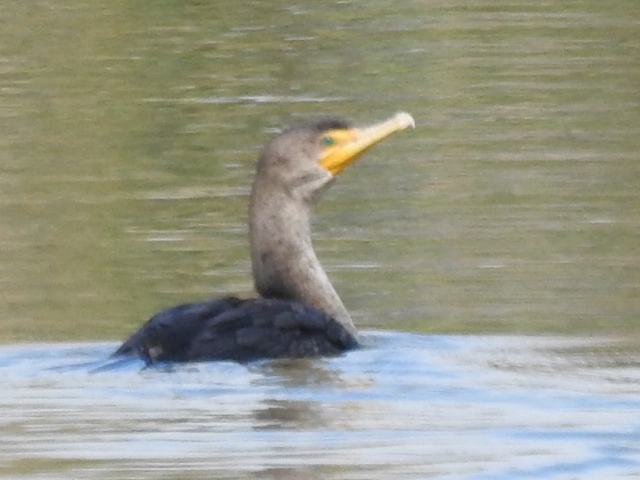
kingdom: Animalia
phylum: Chordata
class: Aves
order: Suliformes
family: Phalacrocoracidae
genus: Phalacrocorax
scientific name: Phalacrocorax auritus
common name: Double-crested cormorant
